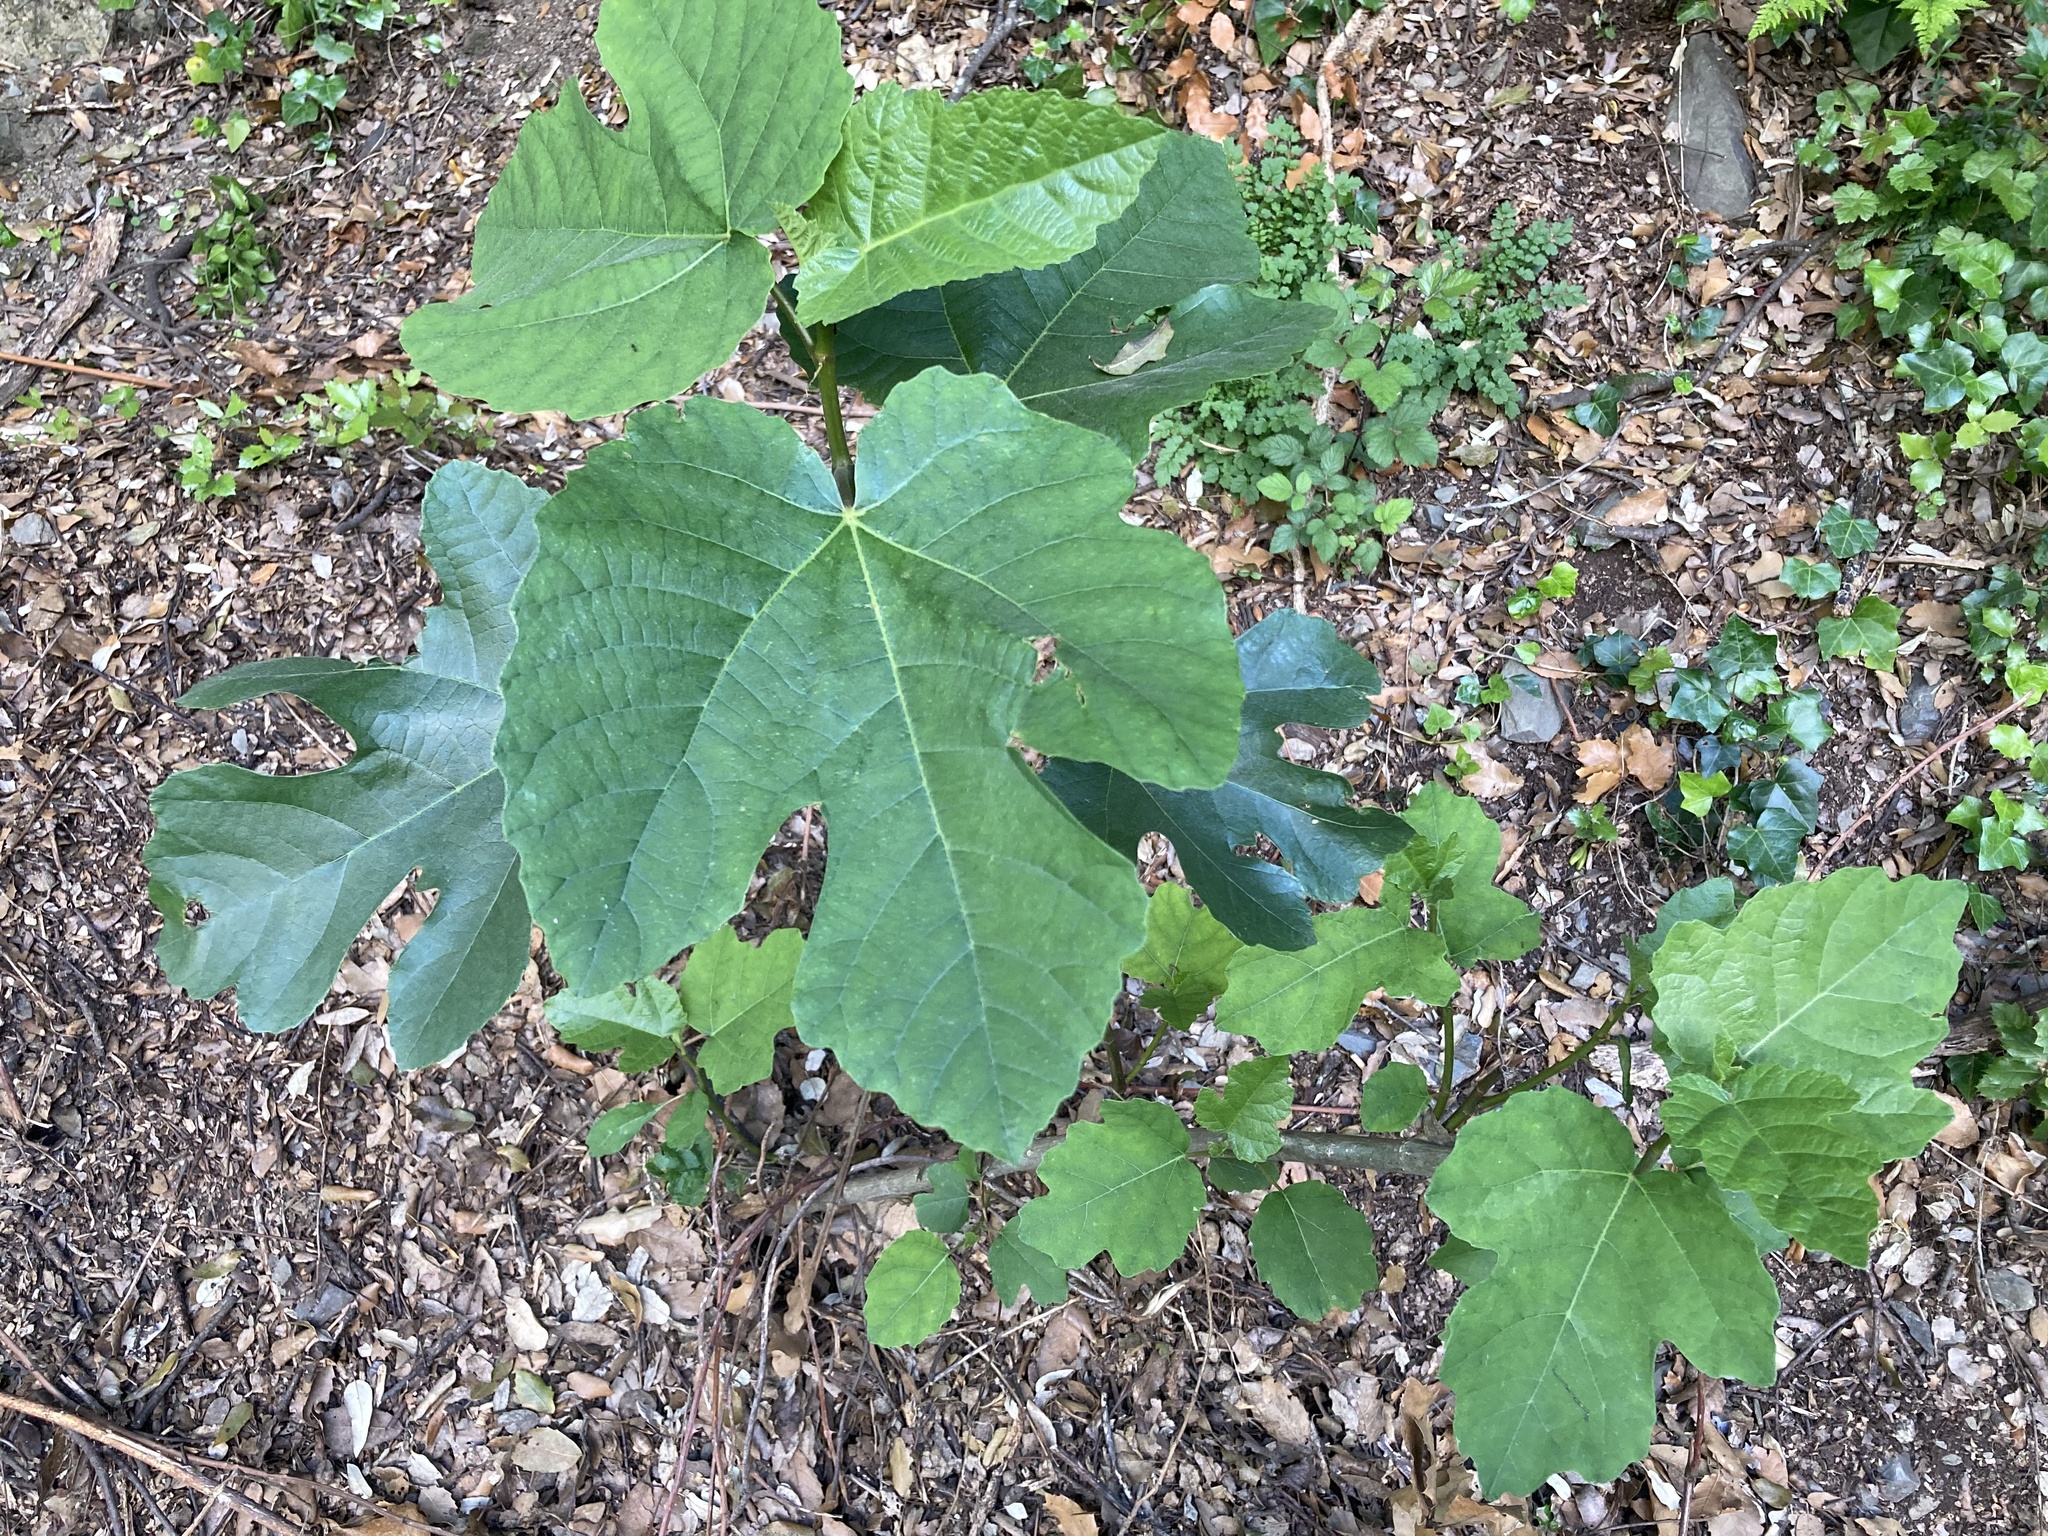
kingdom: Plantae
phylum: Tracheophyta
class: Magnoliopsida
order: Rosales
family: Moraceae
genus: Ficus
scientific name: Ficus carica
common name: Fig
